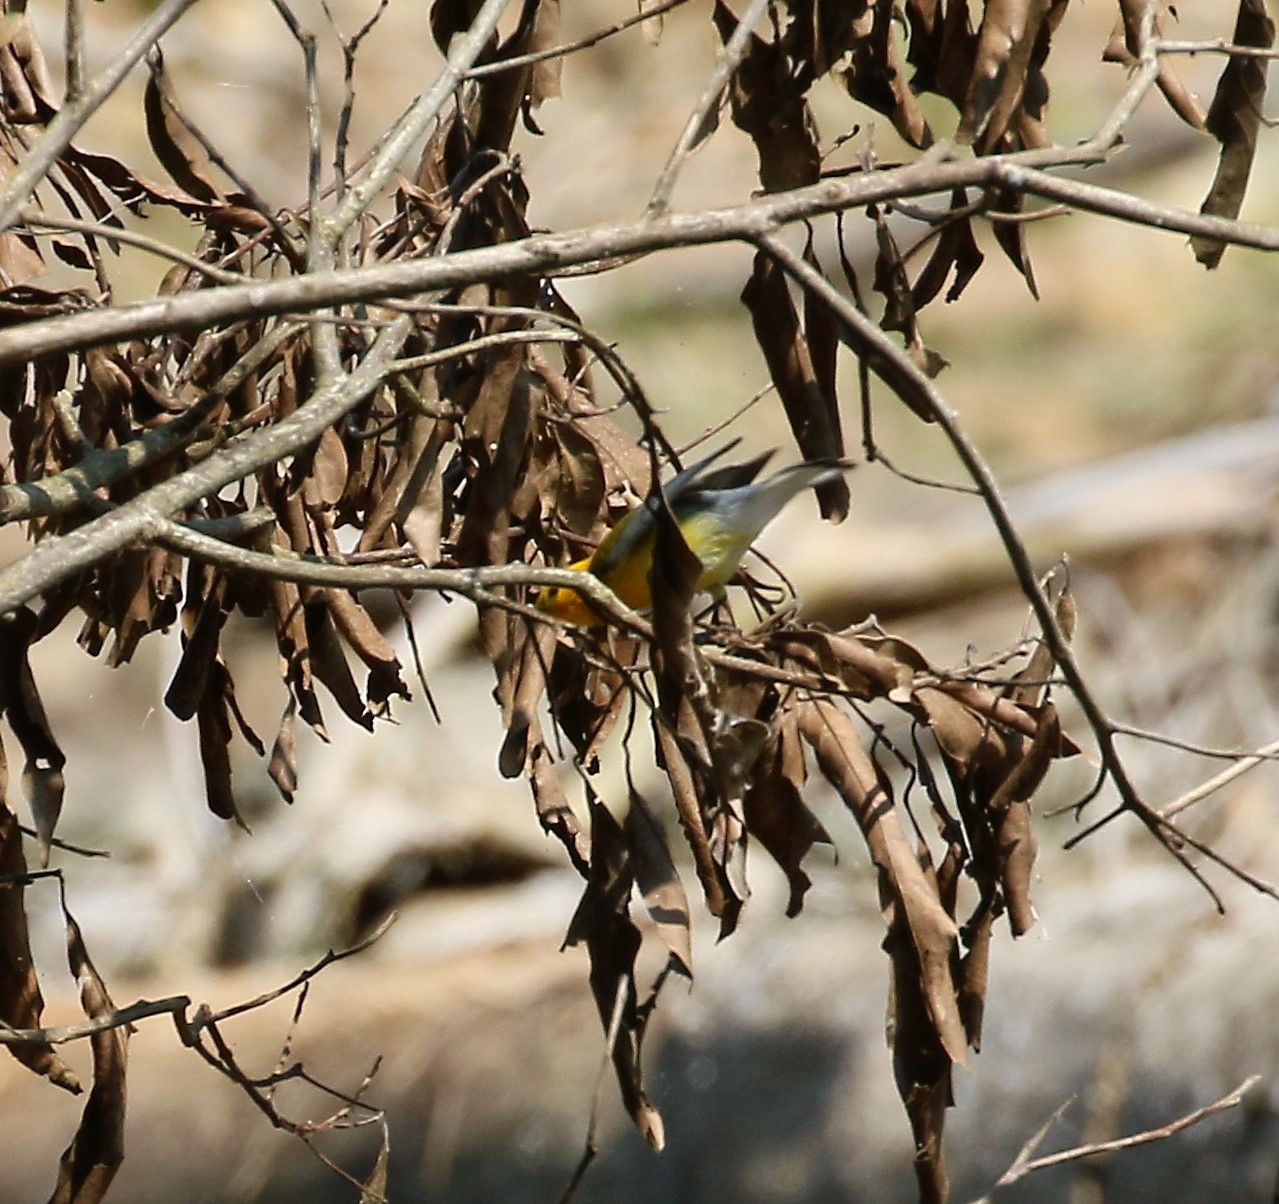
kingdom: Animalia
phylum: Chordata
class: Aves
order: Passeriformes
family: Parulidae
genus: Protonotaria
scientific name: Protonotaria citrea
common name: Prothonotary warbler
